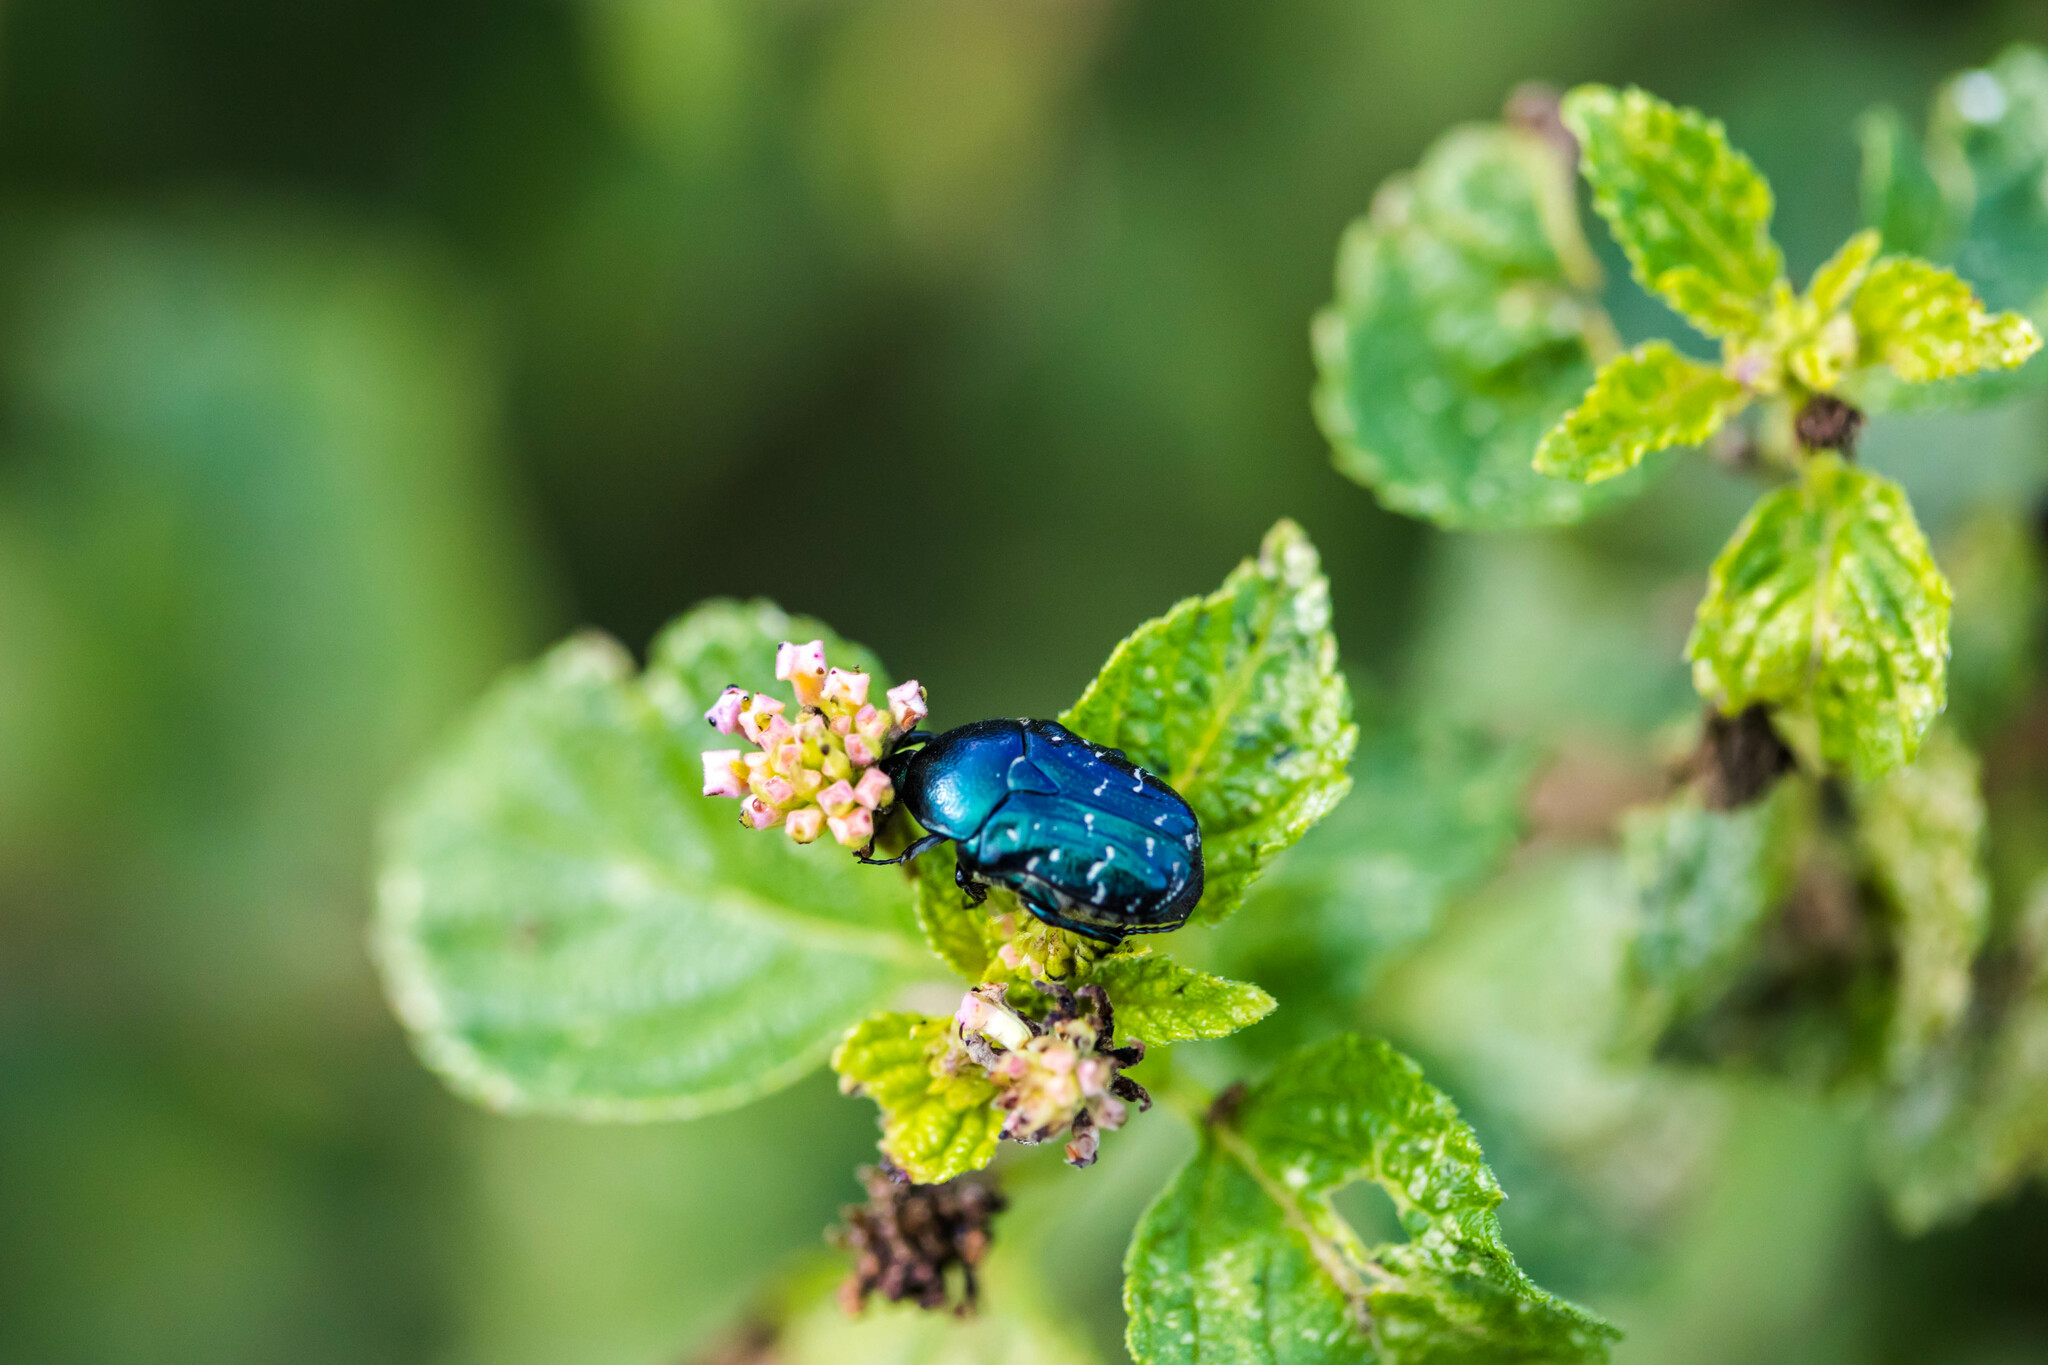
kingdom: Animalia
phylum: Arthropoda
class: Insecta
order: Coleoptera
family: Scarabaeidae
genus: Euphoria
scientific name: Euphoria sepulcralis
